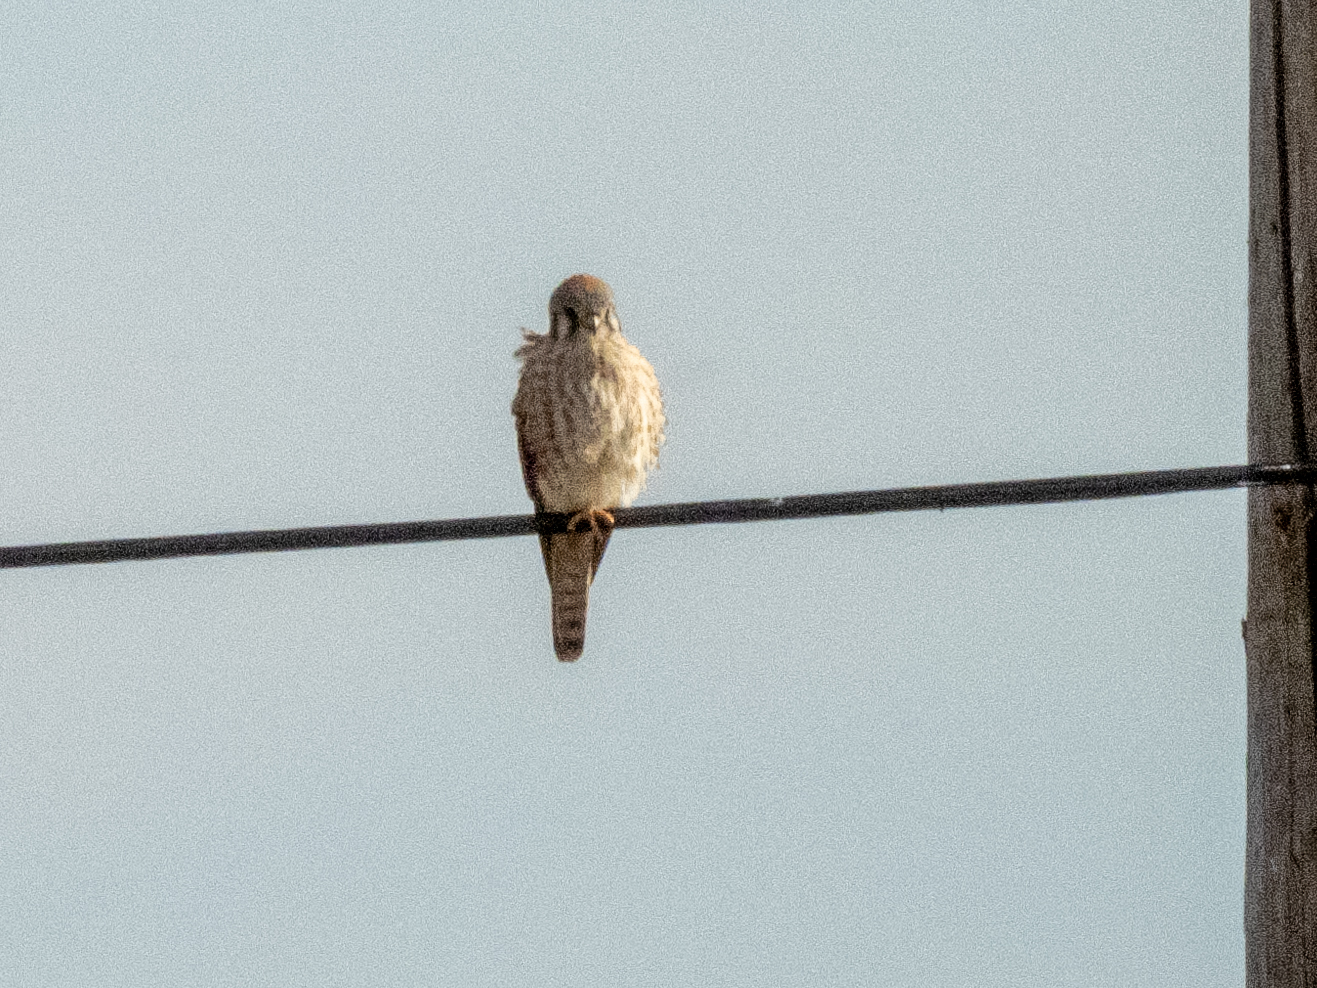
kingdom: Animalia
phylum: Chordata
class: Aves
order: Falconiformes
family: Falconidae
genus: Falco
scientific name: Falco sparverius
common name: American kestrel
